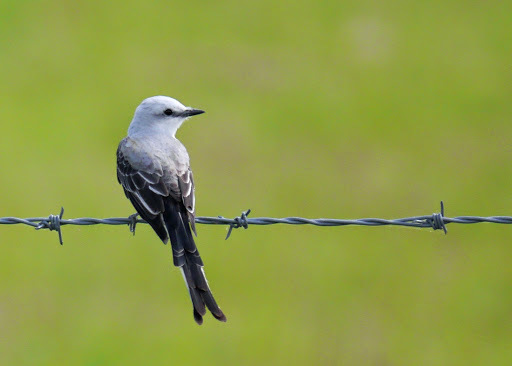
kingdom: Animalia
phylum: Chordata
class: Aves
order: Passeriformes
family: Tyrannidae
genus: Tyrannus
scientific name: Tyrannus forficatus
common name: Scissor-tailed flycatcher
